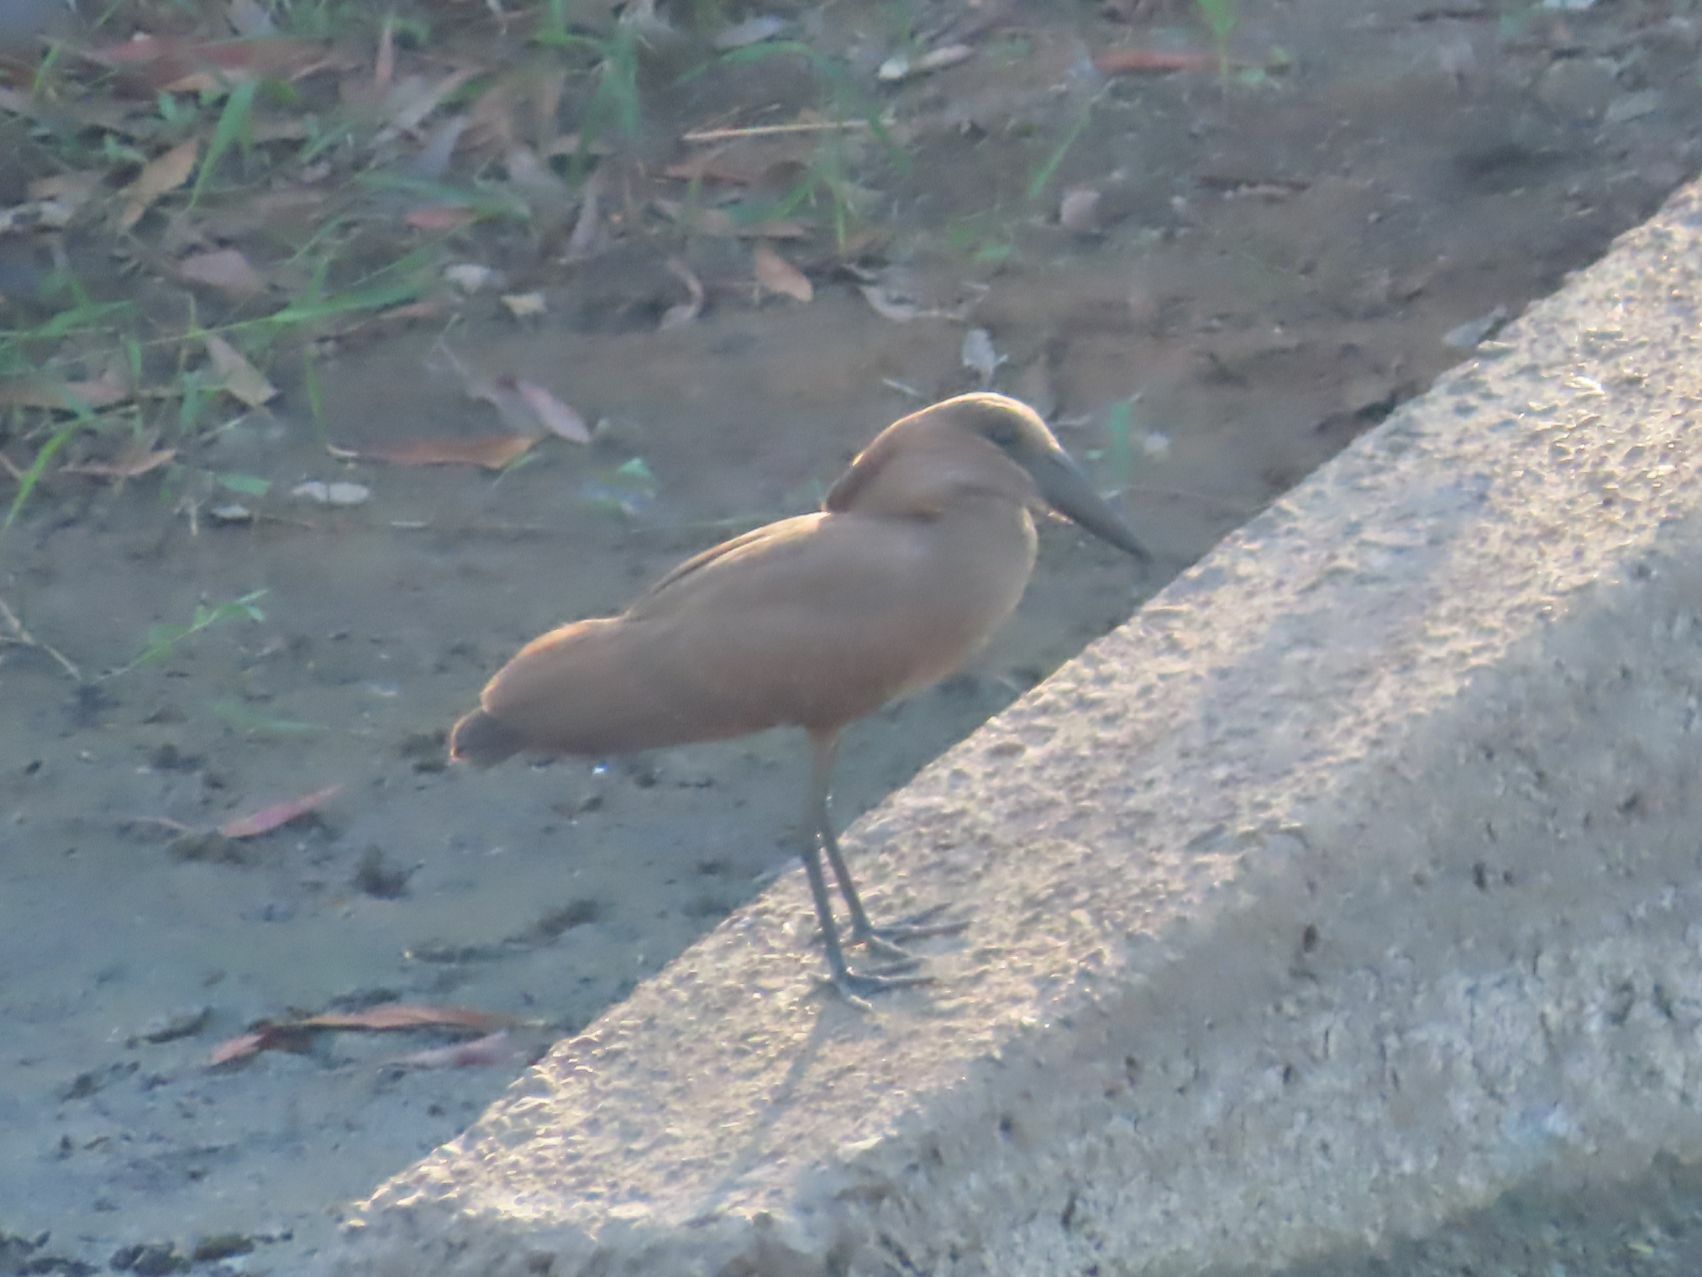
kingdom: Animalia
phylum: Chordata
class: Aves
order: Pelecaniformes
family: Scopidae
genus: Scopus
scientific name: Scopus umbretta
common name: Hamerkop
